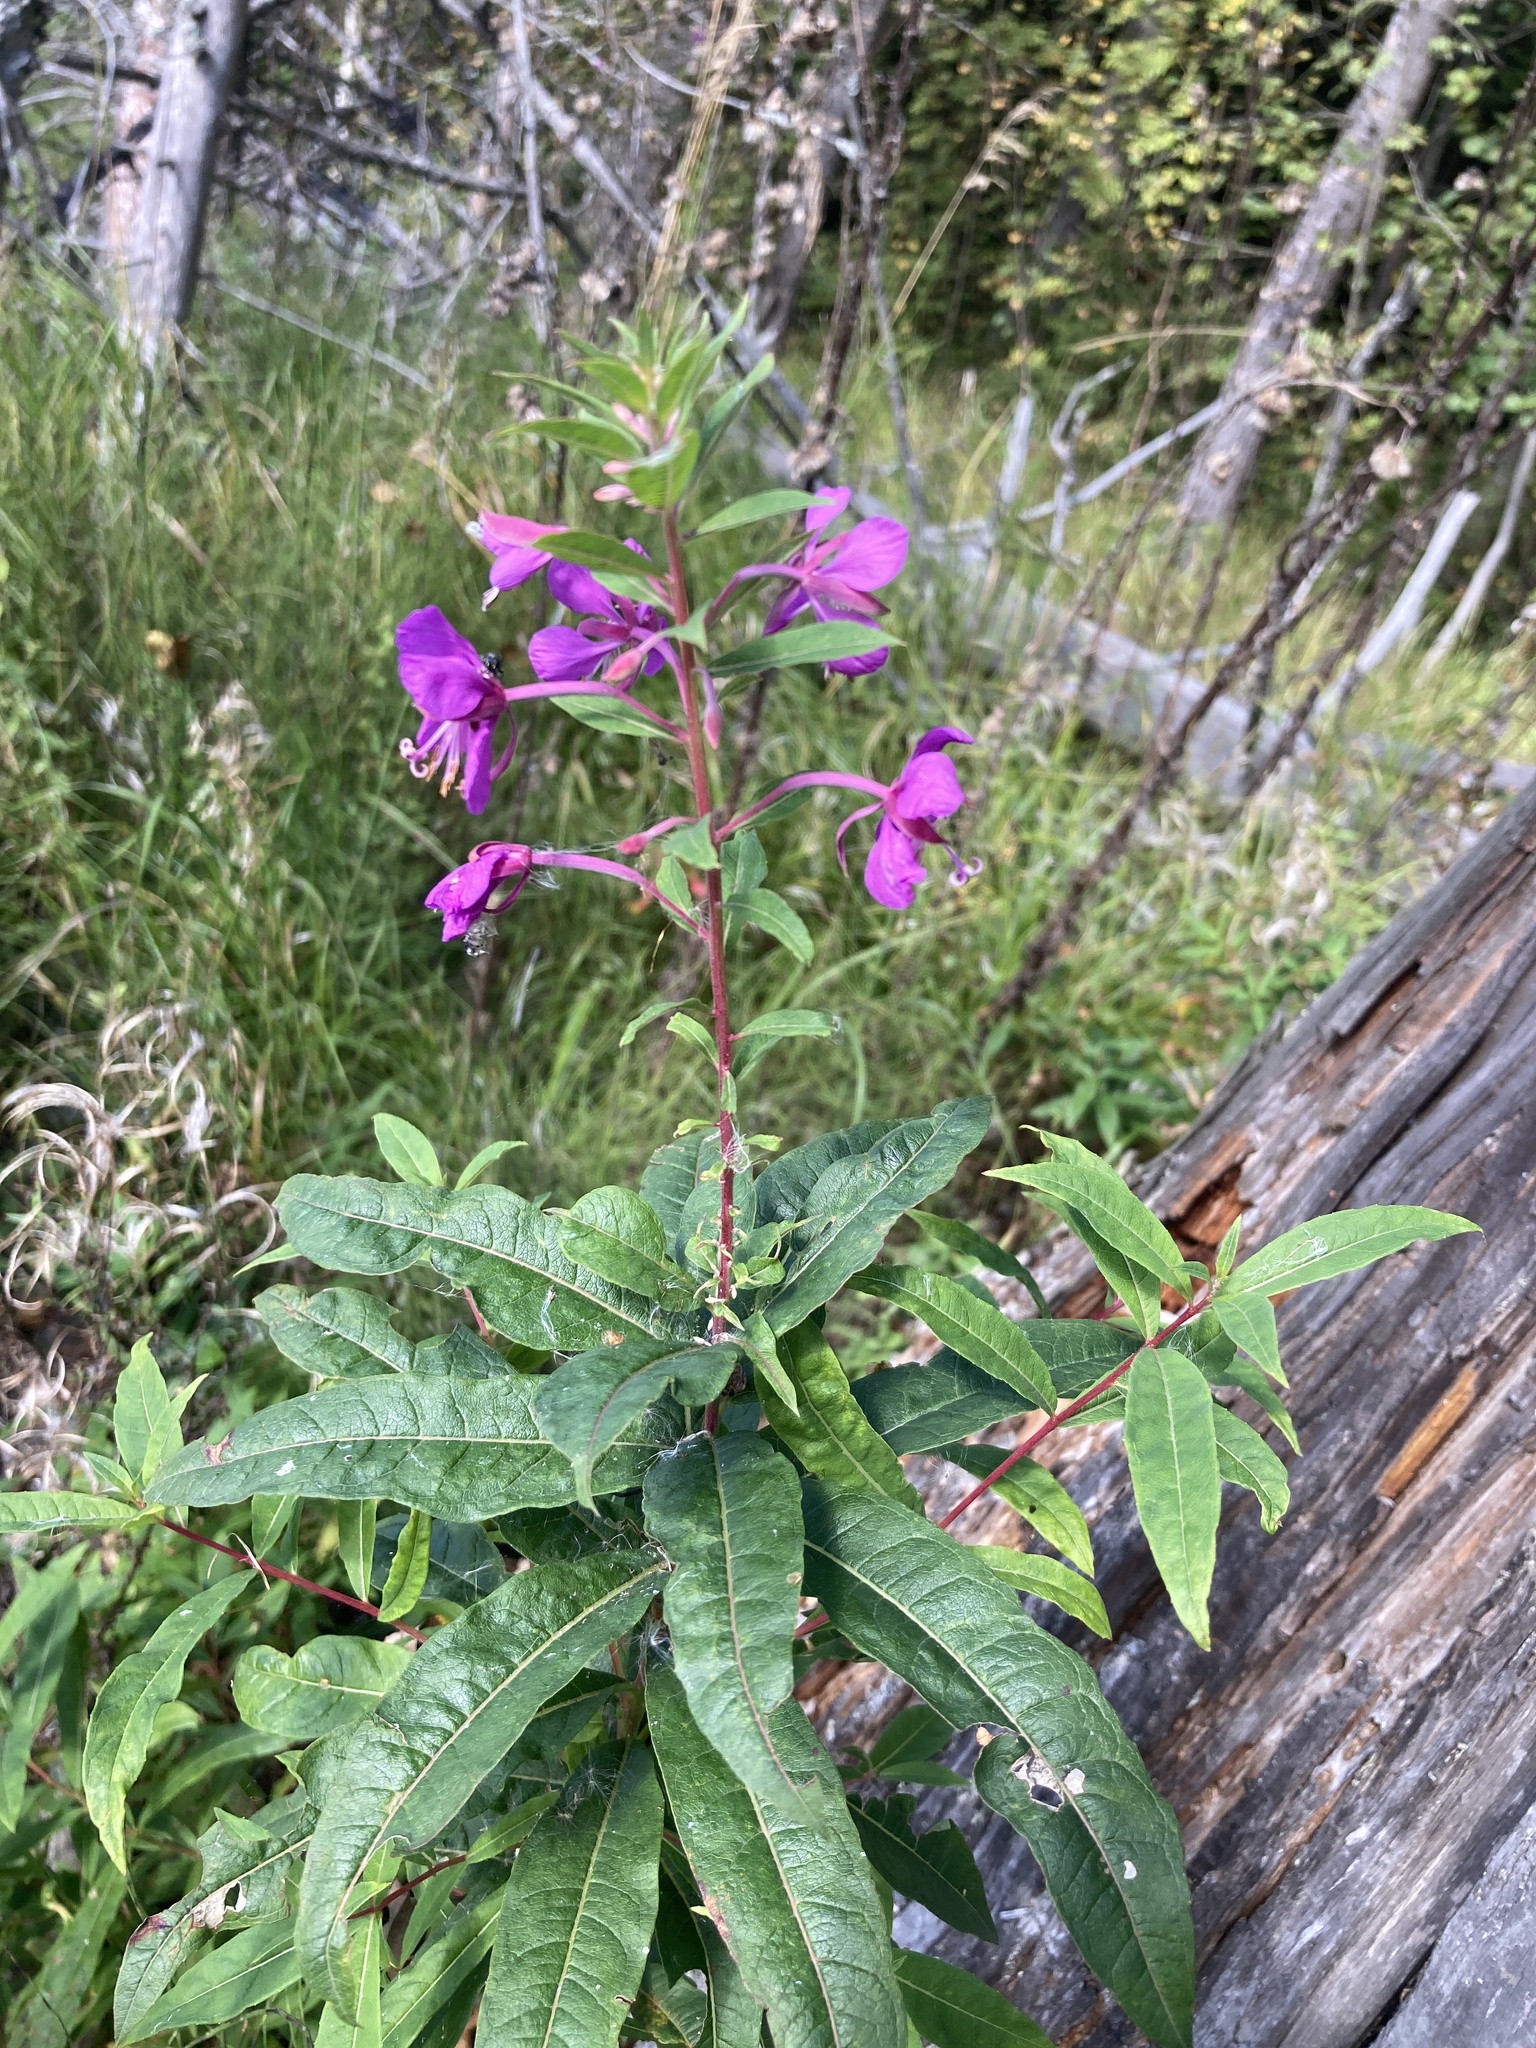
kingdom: Plantae
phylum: Tracheophyta
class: Magnoliopsida
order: Myrtales
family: Onagraceae
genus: Chamaenerion
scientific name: Chamaenerion angustifolium
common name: Fireweed
